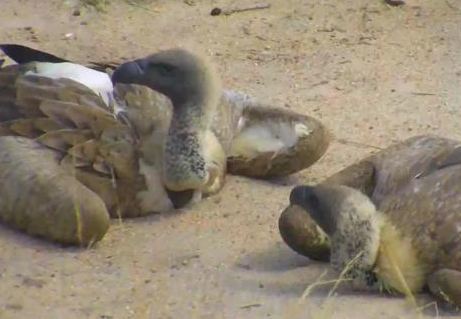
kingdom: Animalia
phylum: Chordata
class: Aves
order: Accipitriformes
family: Accipitridae
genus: Gyps
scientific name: Gyps africanus
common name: White-backed vulture
